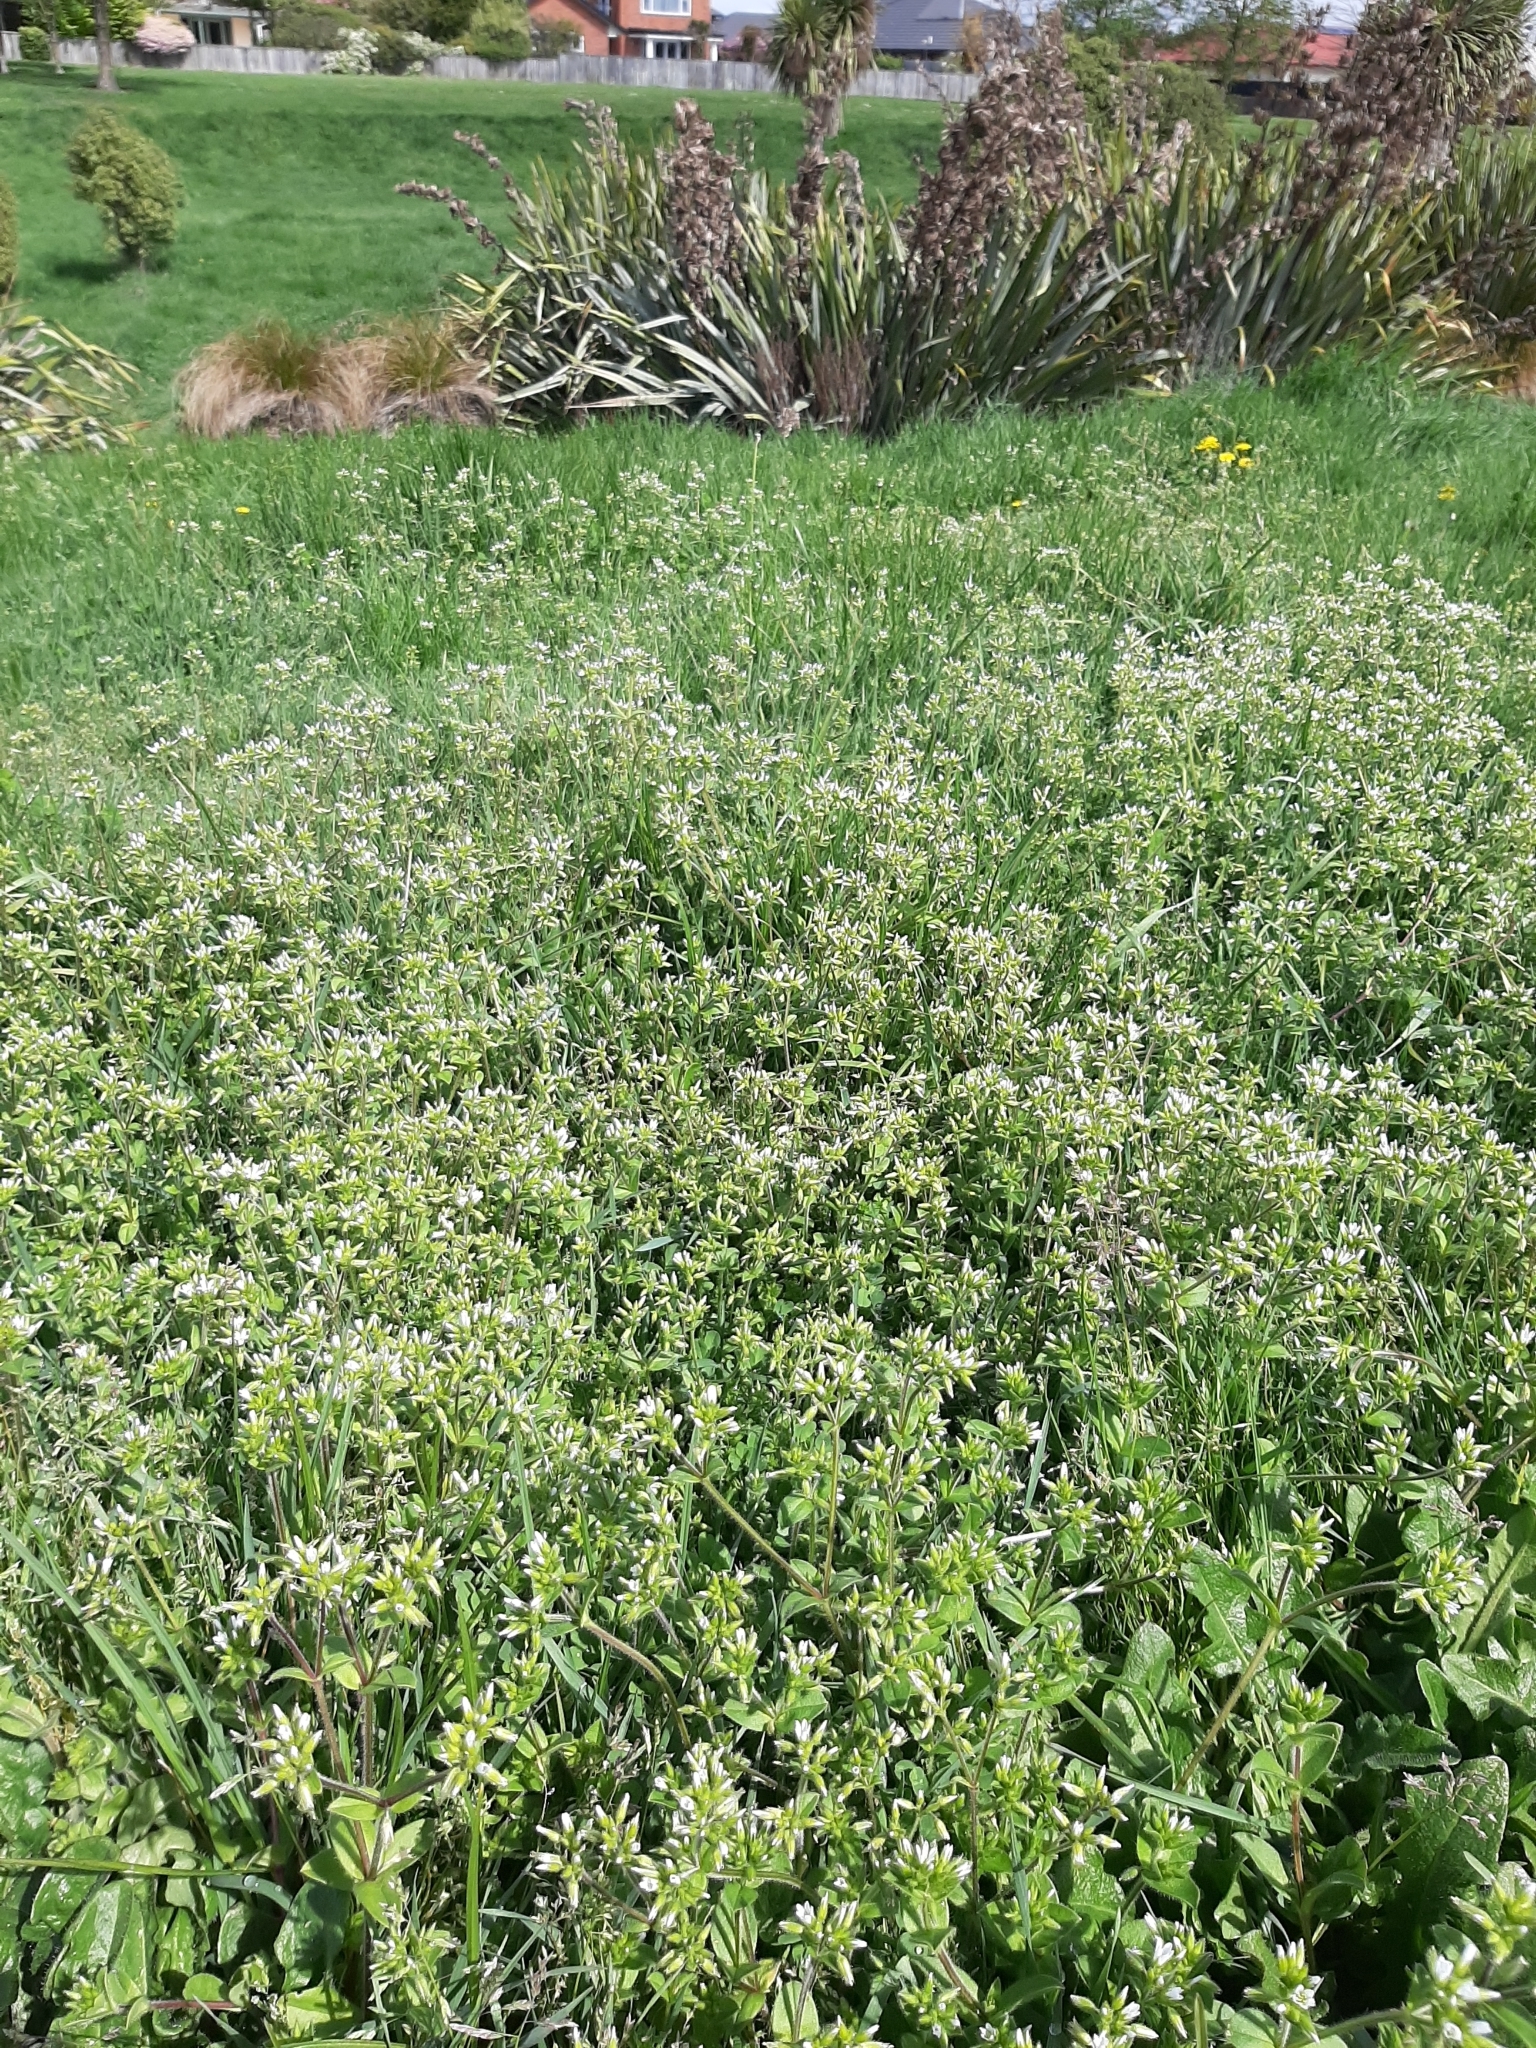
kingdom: Plantae
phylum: Tracheophyta
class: Magnoliopsida
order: Caryophyllales
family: Caryophyllaceae
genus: Cerastium
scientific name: Cerastium fontanum
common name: Common mouse-ear
